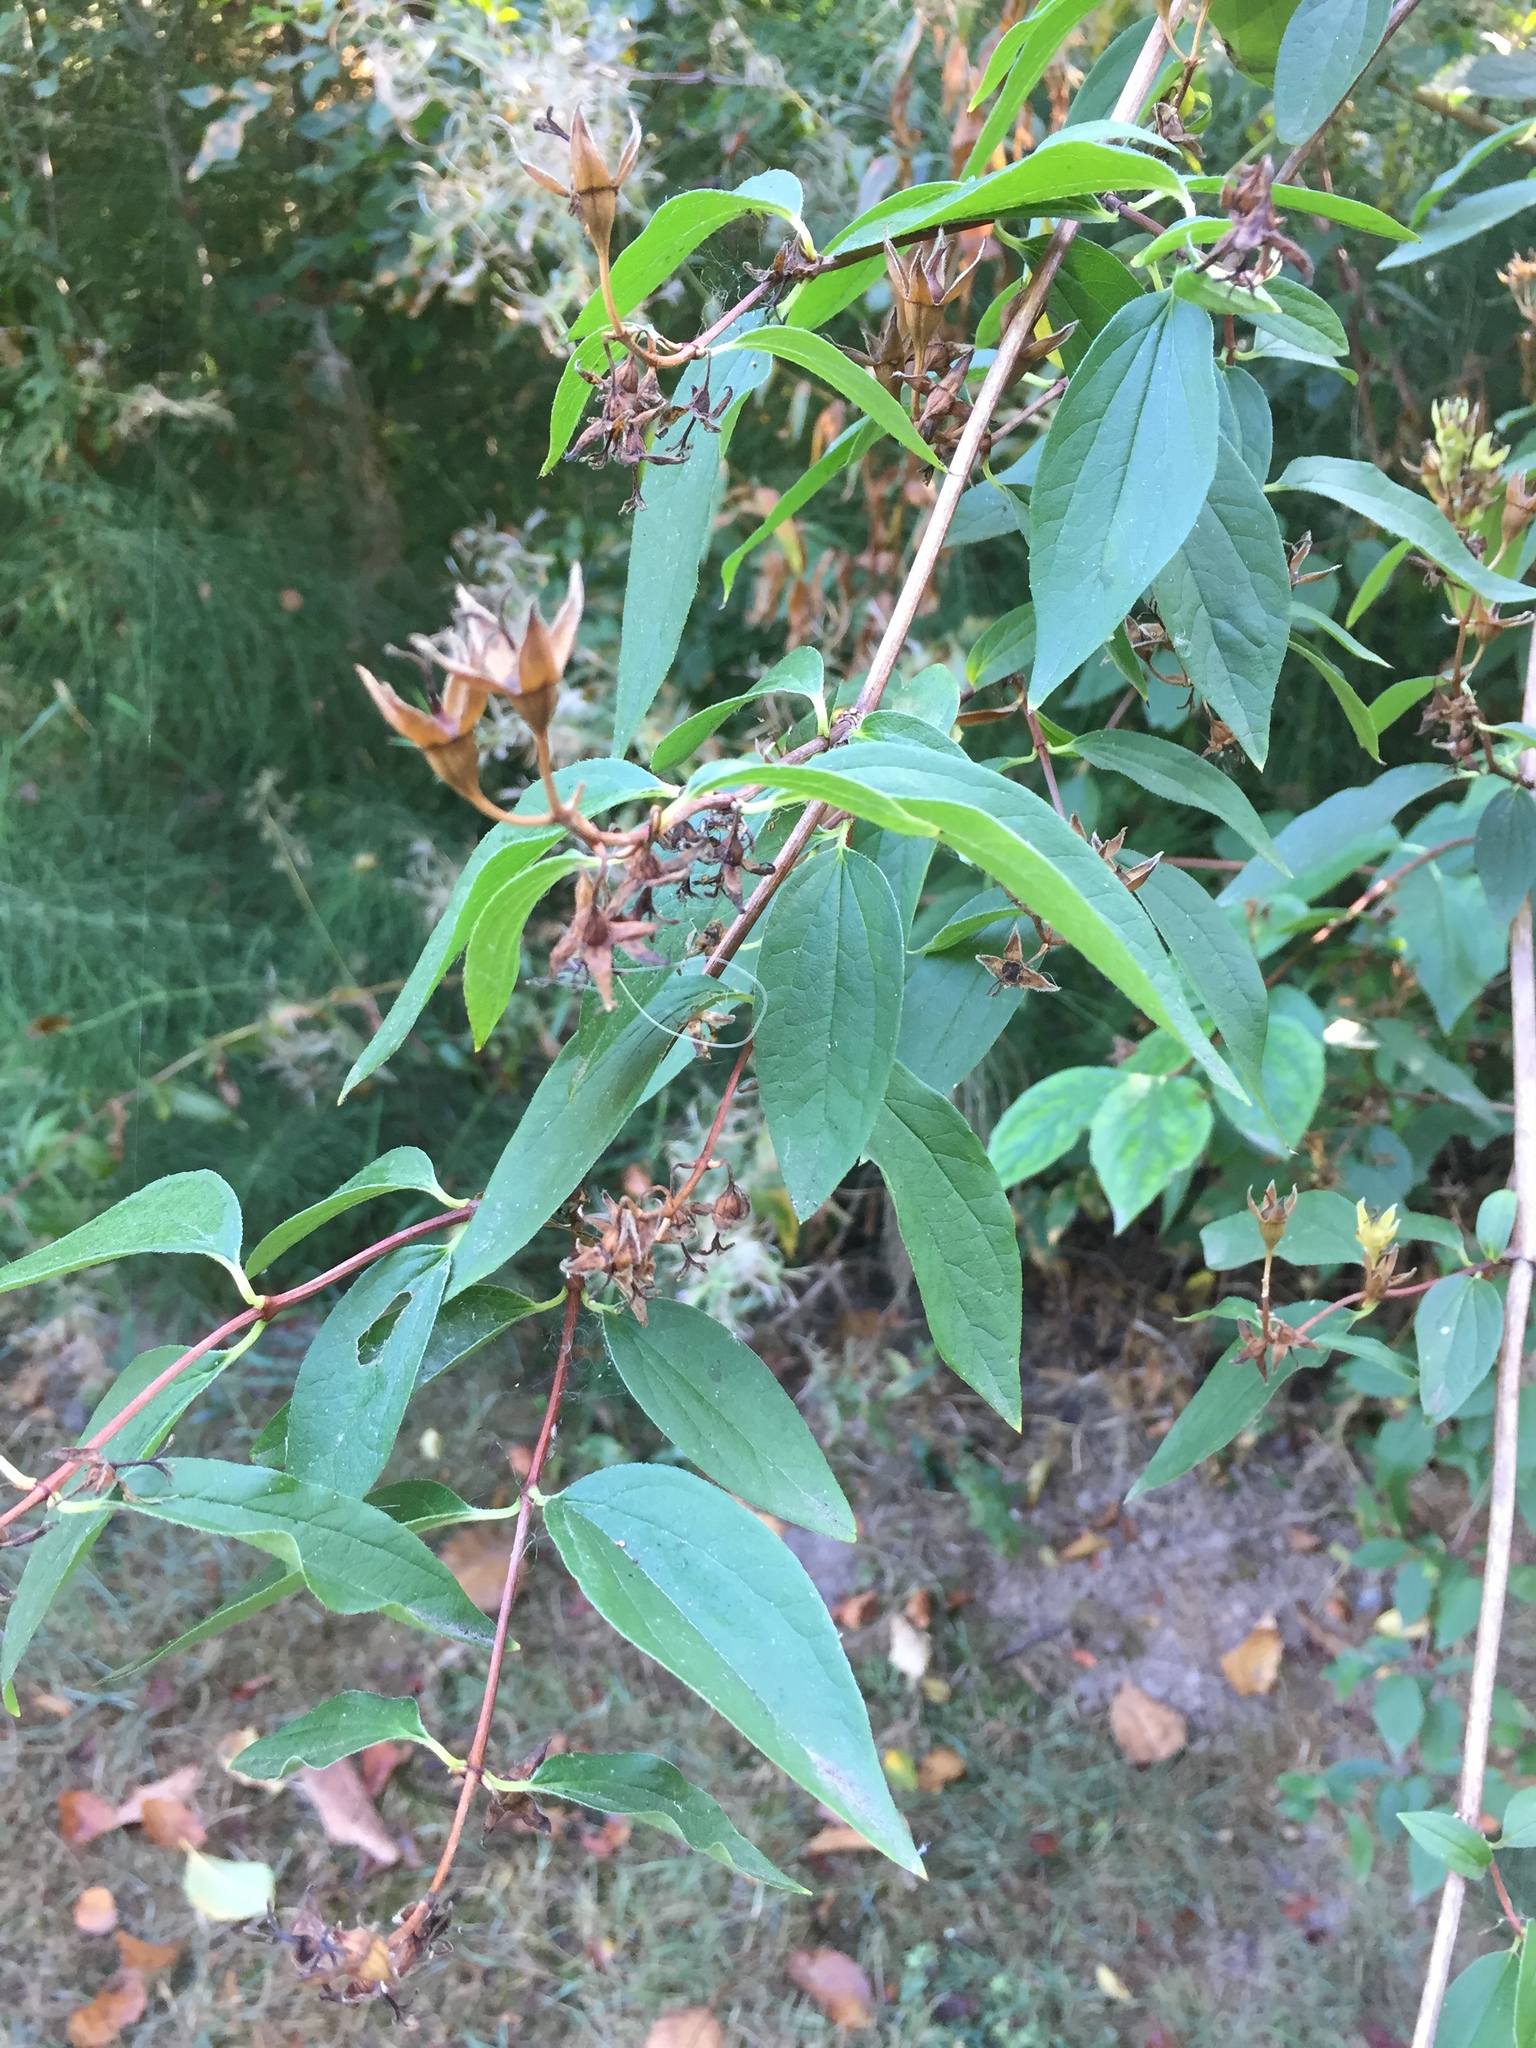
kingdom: Plantae
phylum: Tracheophyta
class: Magnoliopsida
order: Cornales
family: Hydrangeaceae
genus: Philadelphus
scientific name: Philadelphus lewisii
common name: Lewis's mock orange
